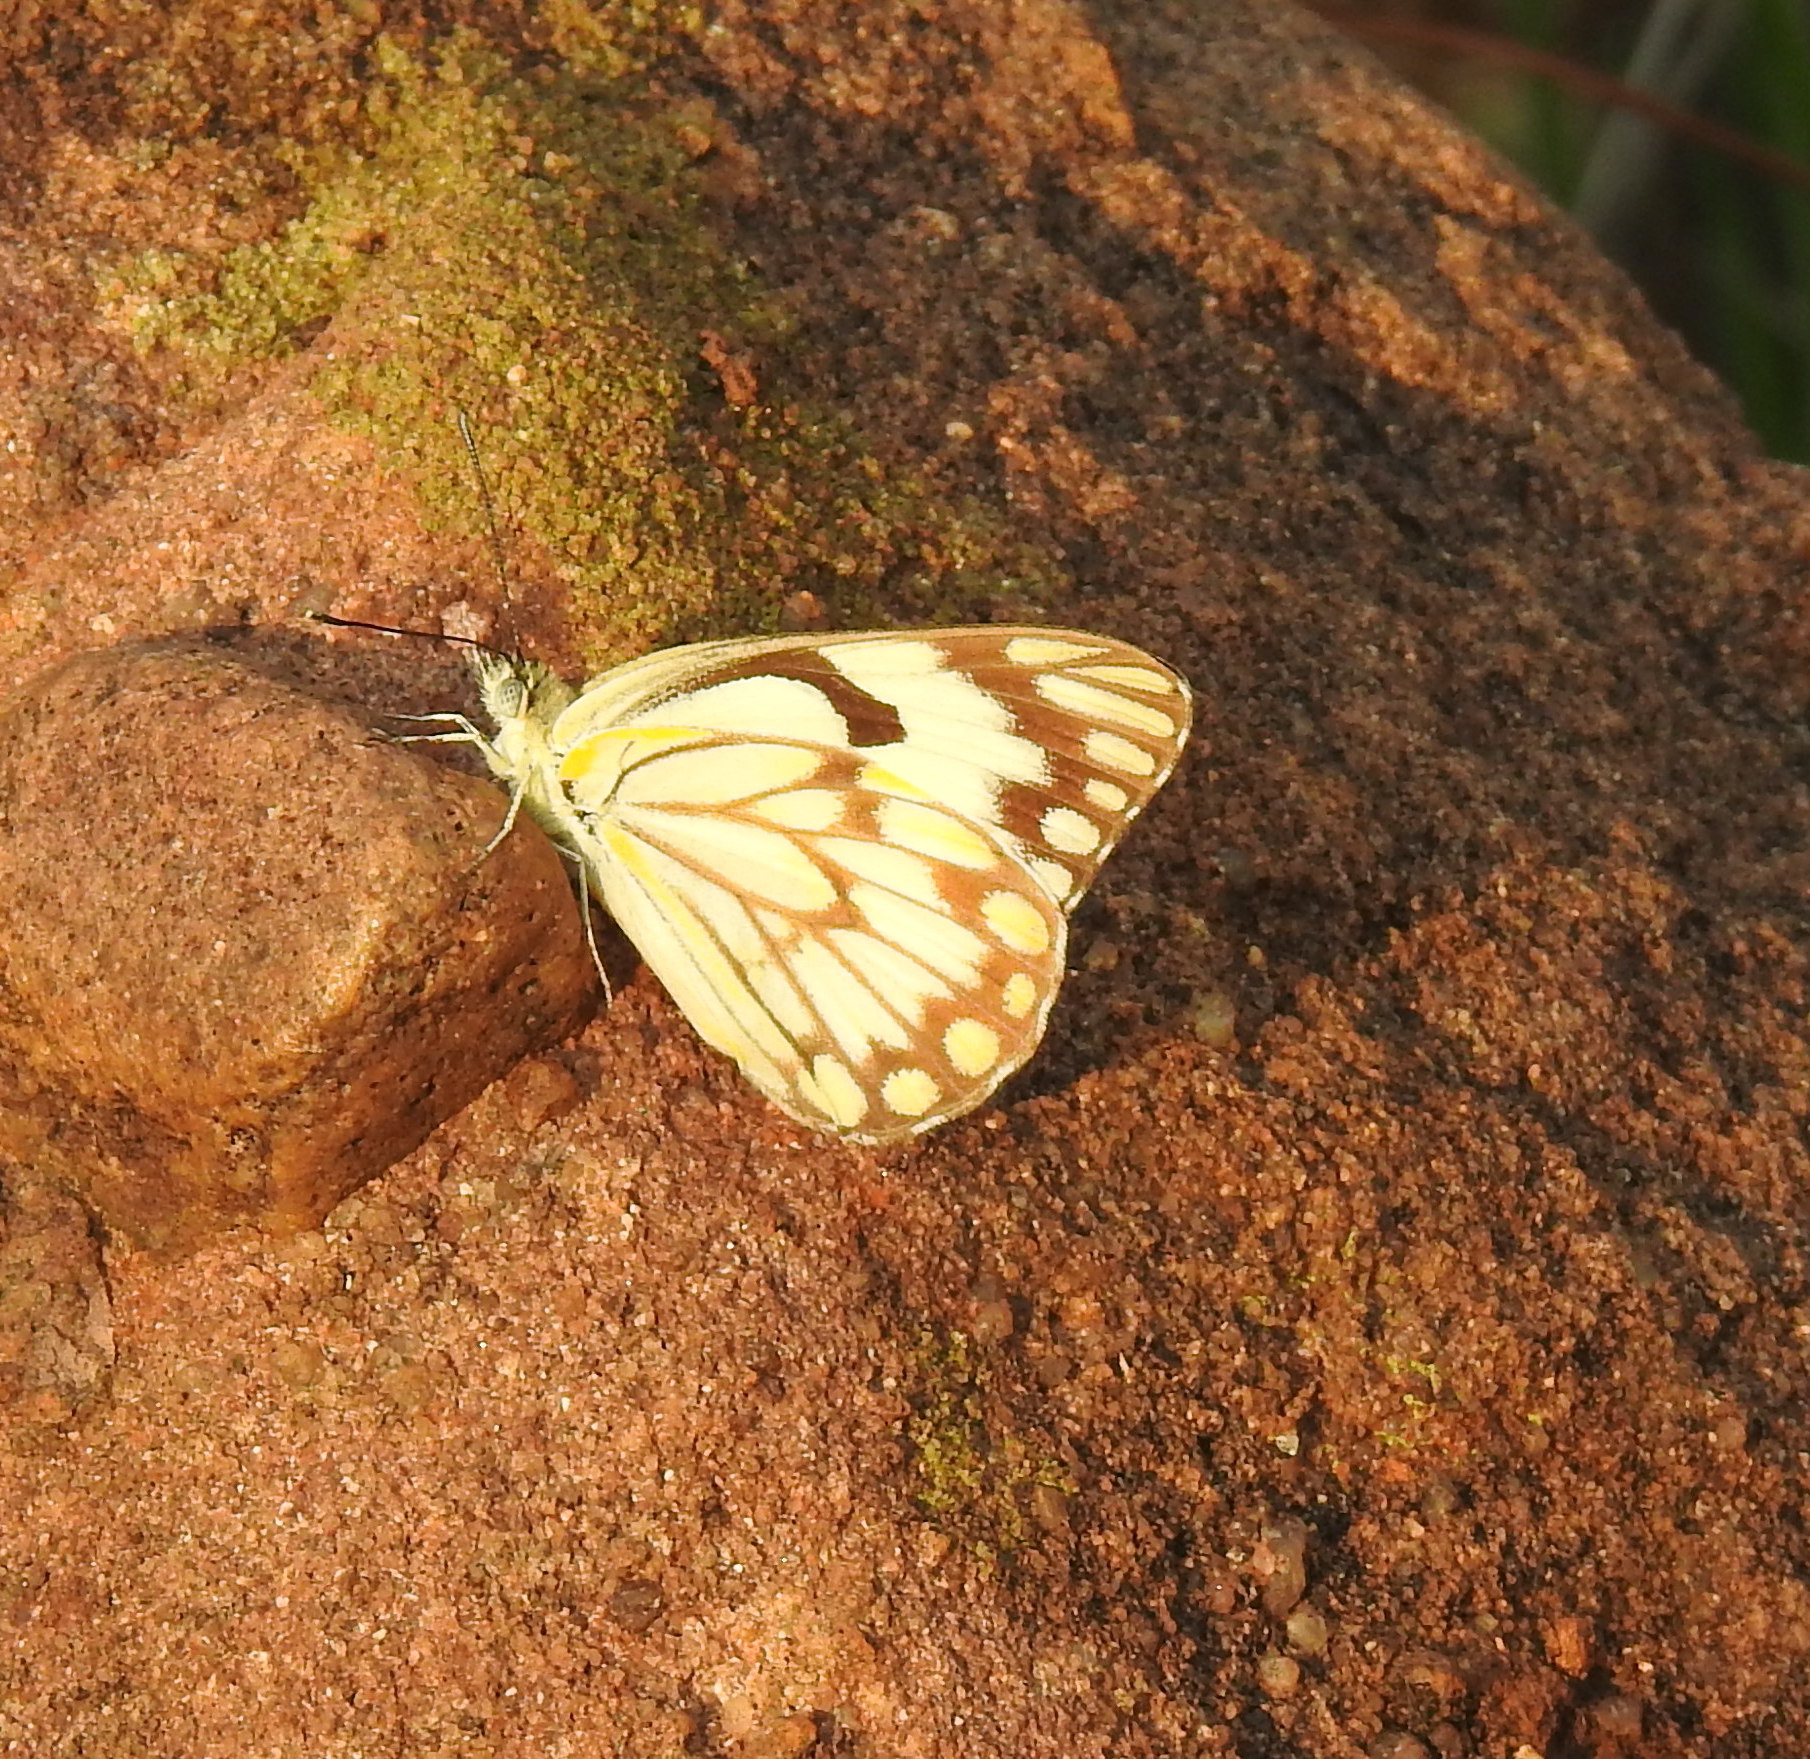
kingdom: Animalia
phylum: Arthropoda
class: Insecta
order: Lepidoptera
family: Pieridae
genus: Belenois
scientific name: Belenois aurota
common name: Brown-veined white
